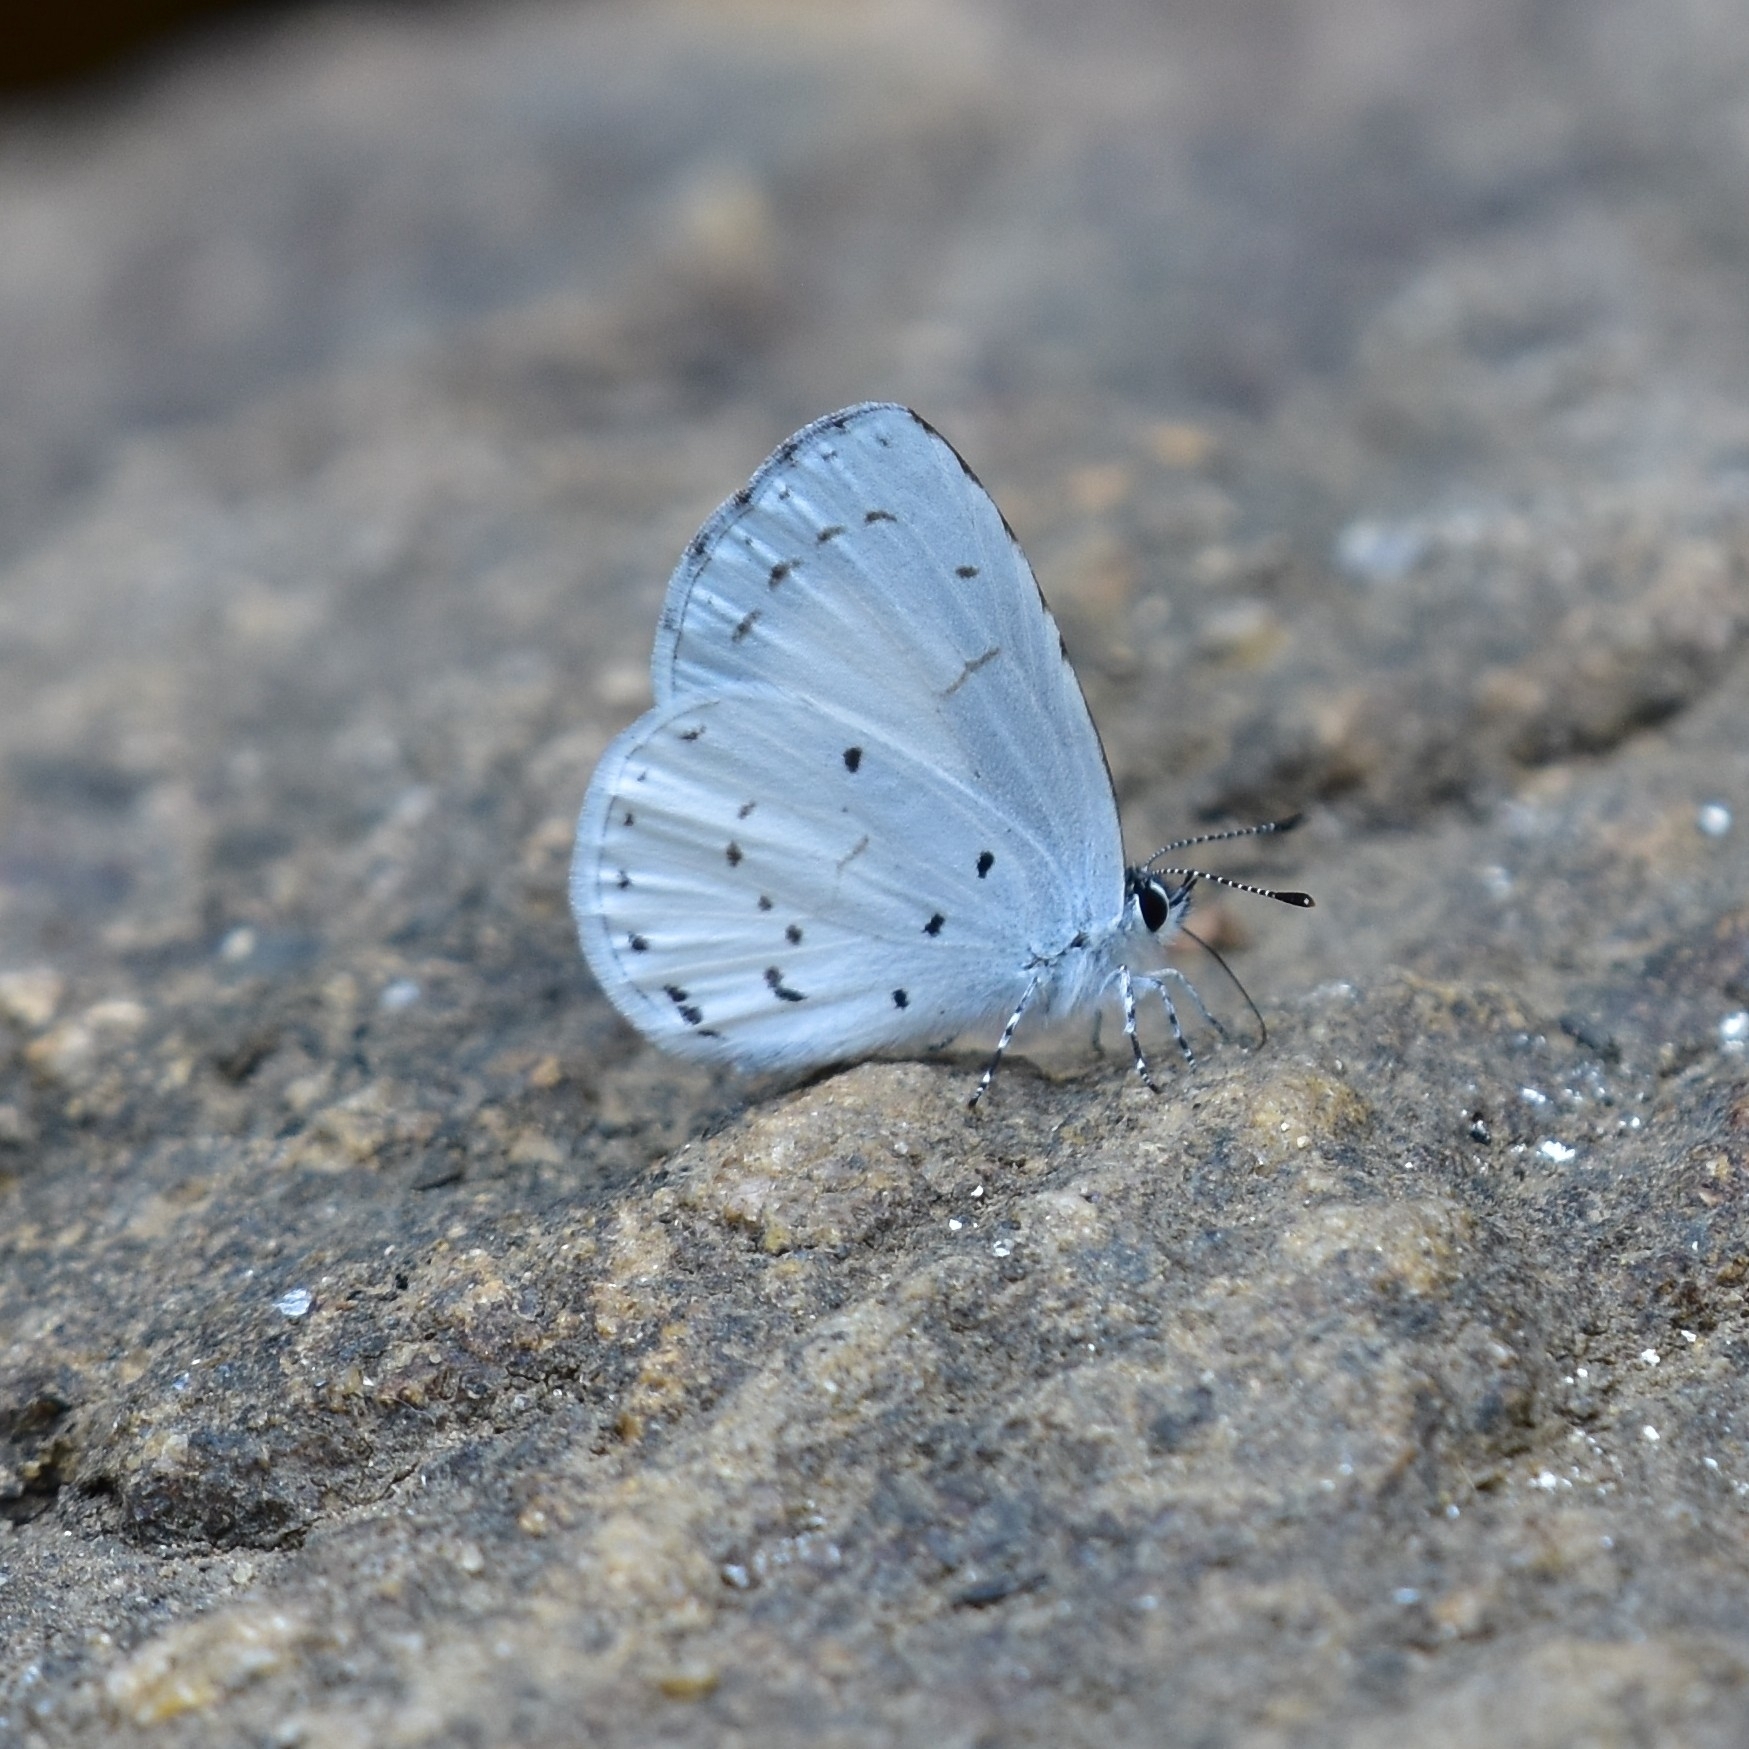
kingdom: Animalia
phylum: Arthropoda
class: Insecta
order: Lepidoptera
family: Lycaenidae
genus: Udara
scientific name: Udara akasa
